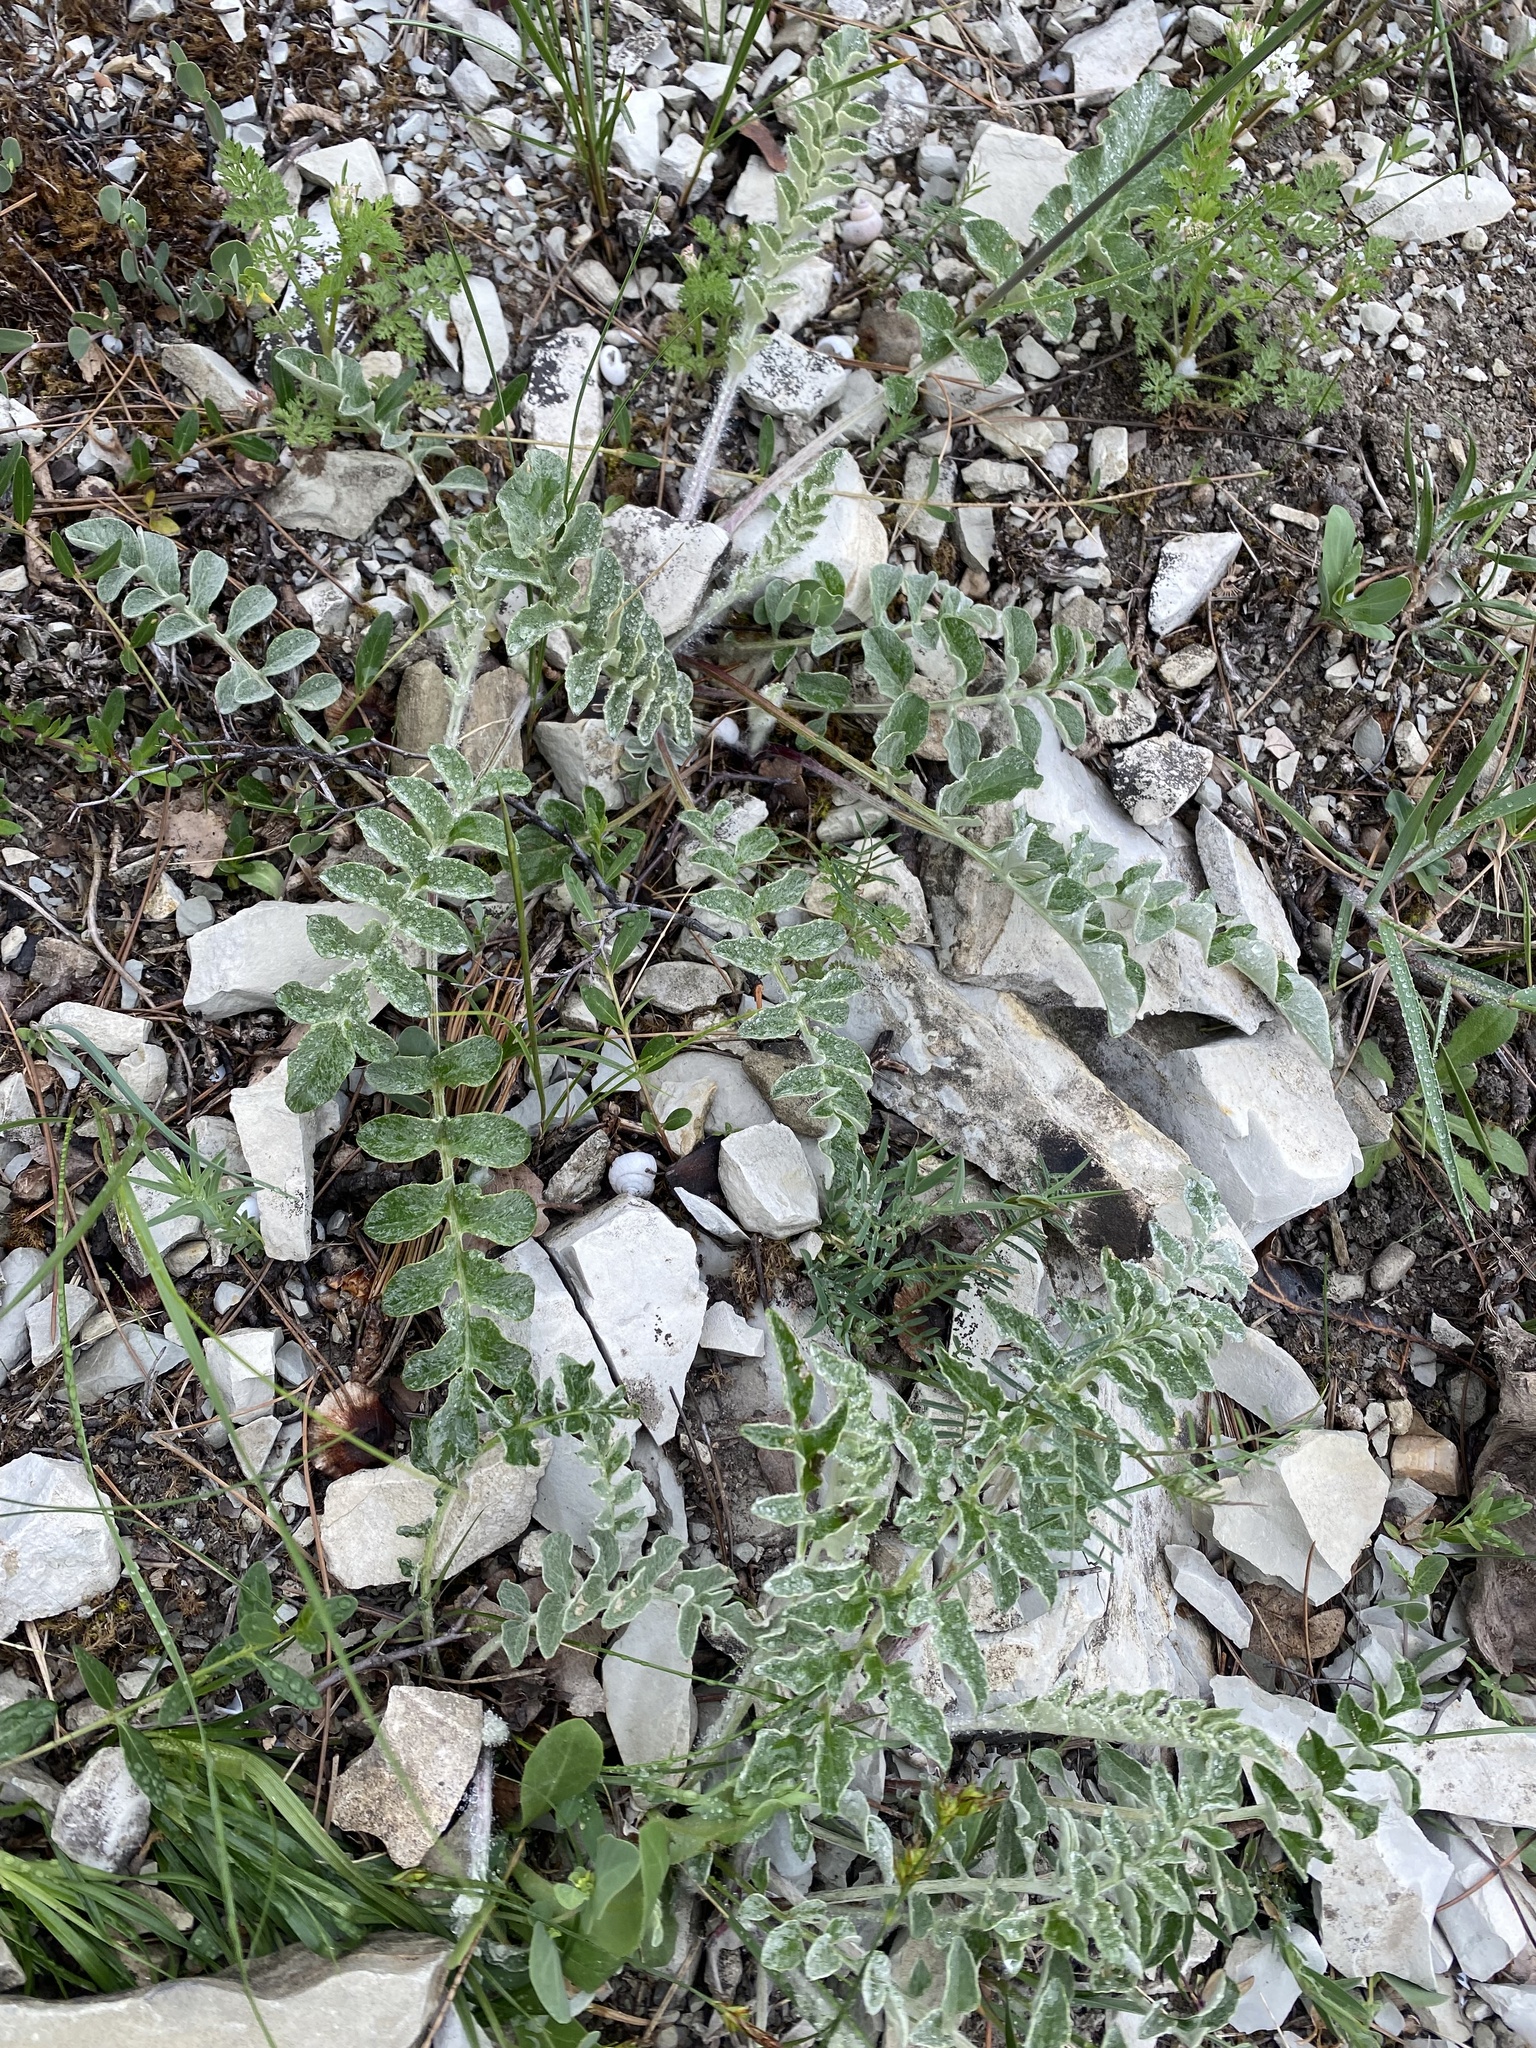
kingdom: Plantae
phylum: Tracheophyta
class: Magnoliopsida
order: Asterales
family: Asteraceae
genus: Psephellus
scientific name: Psephellus declinatus
